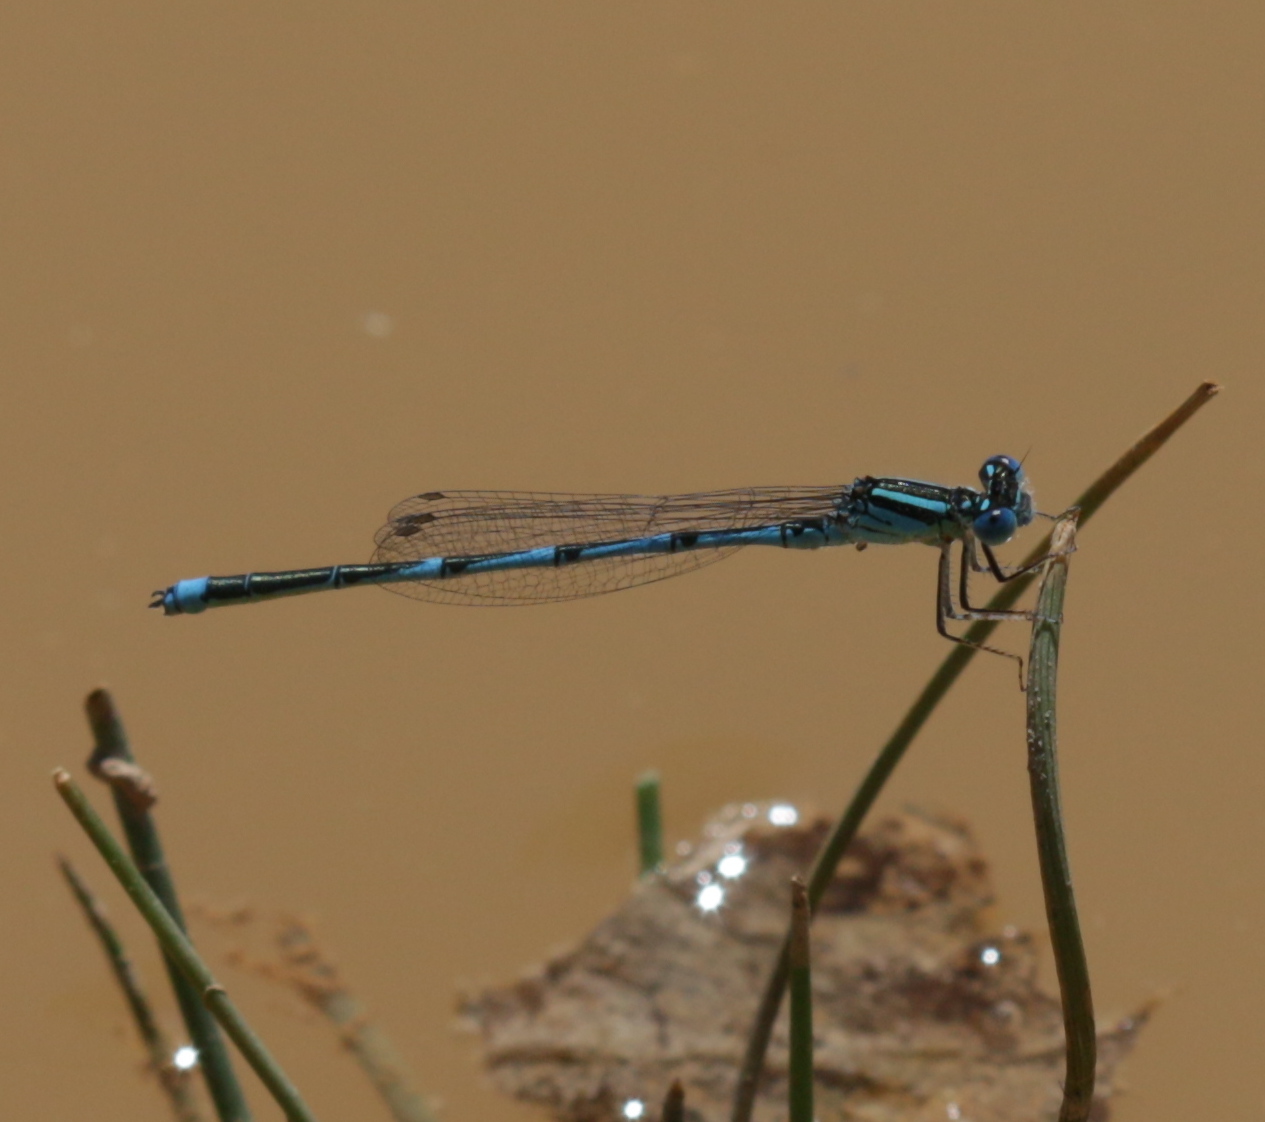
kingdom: Animalia
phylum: Arthropoda
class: Insecta
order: Odonata
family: Coenagrionidae
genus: Erythromma
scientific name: Erythromma lindenii
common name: Blue-eye
